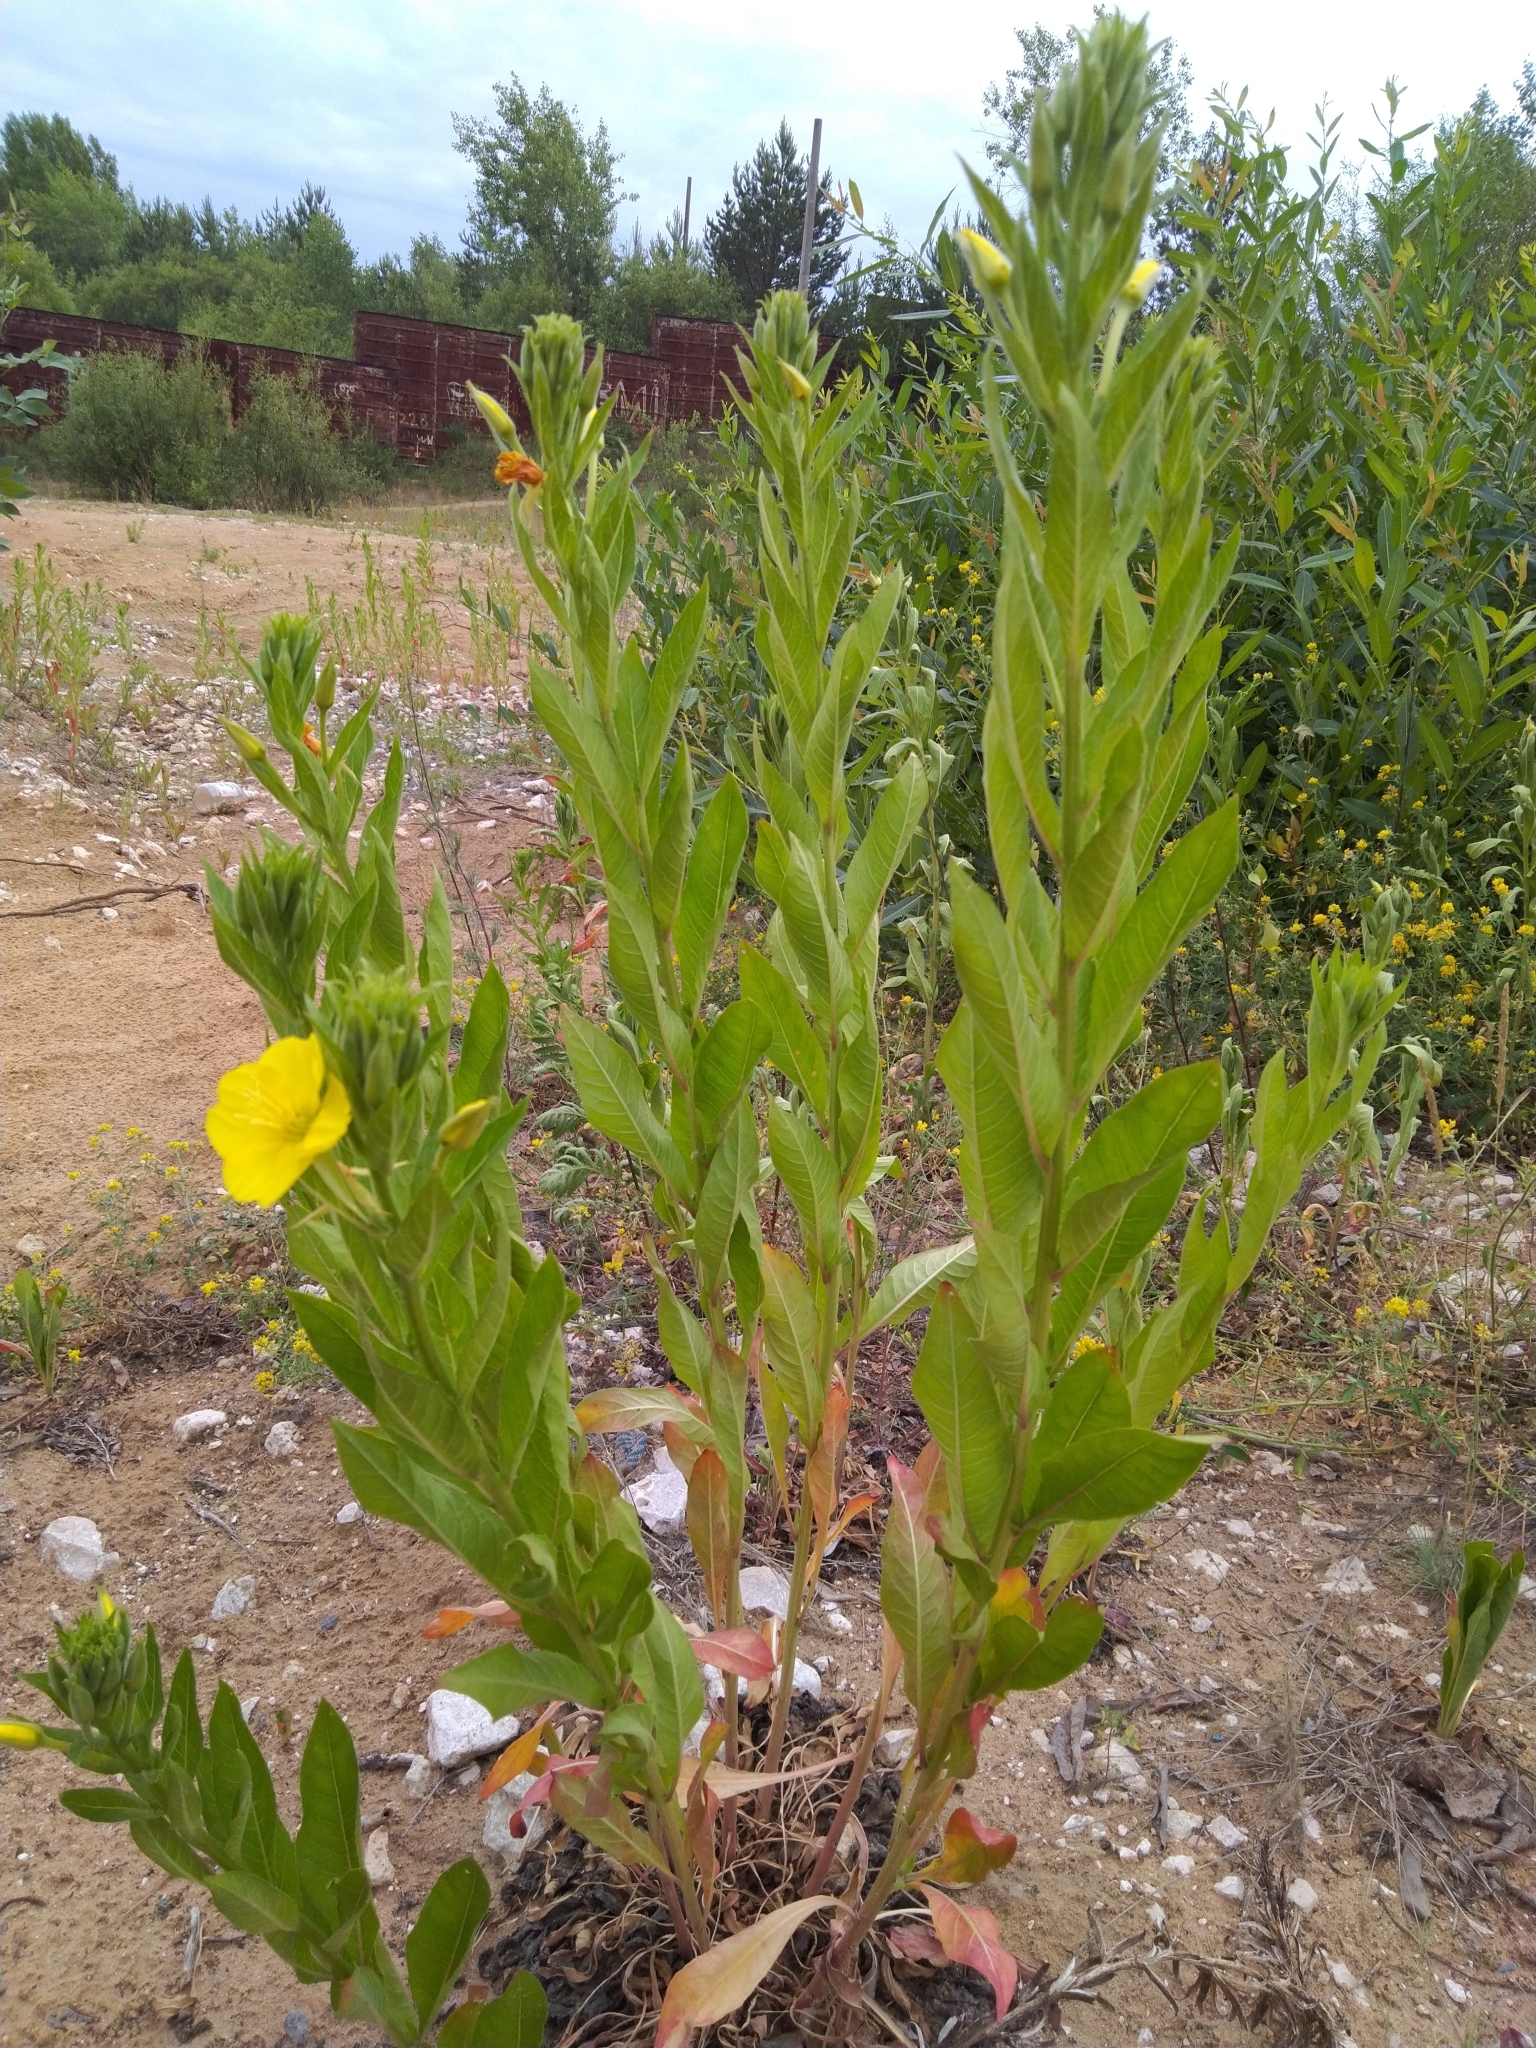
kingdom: Plantae
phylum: Tracheophyta
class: Magnoliopsida
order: Myrtales
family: Onagraceae
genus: Oenothera
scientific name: Oenothera biennis
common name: Common evening-primrose
